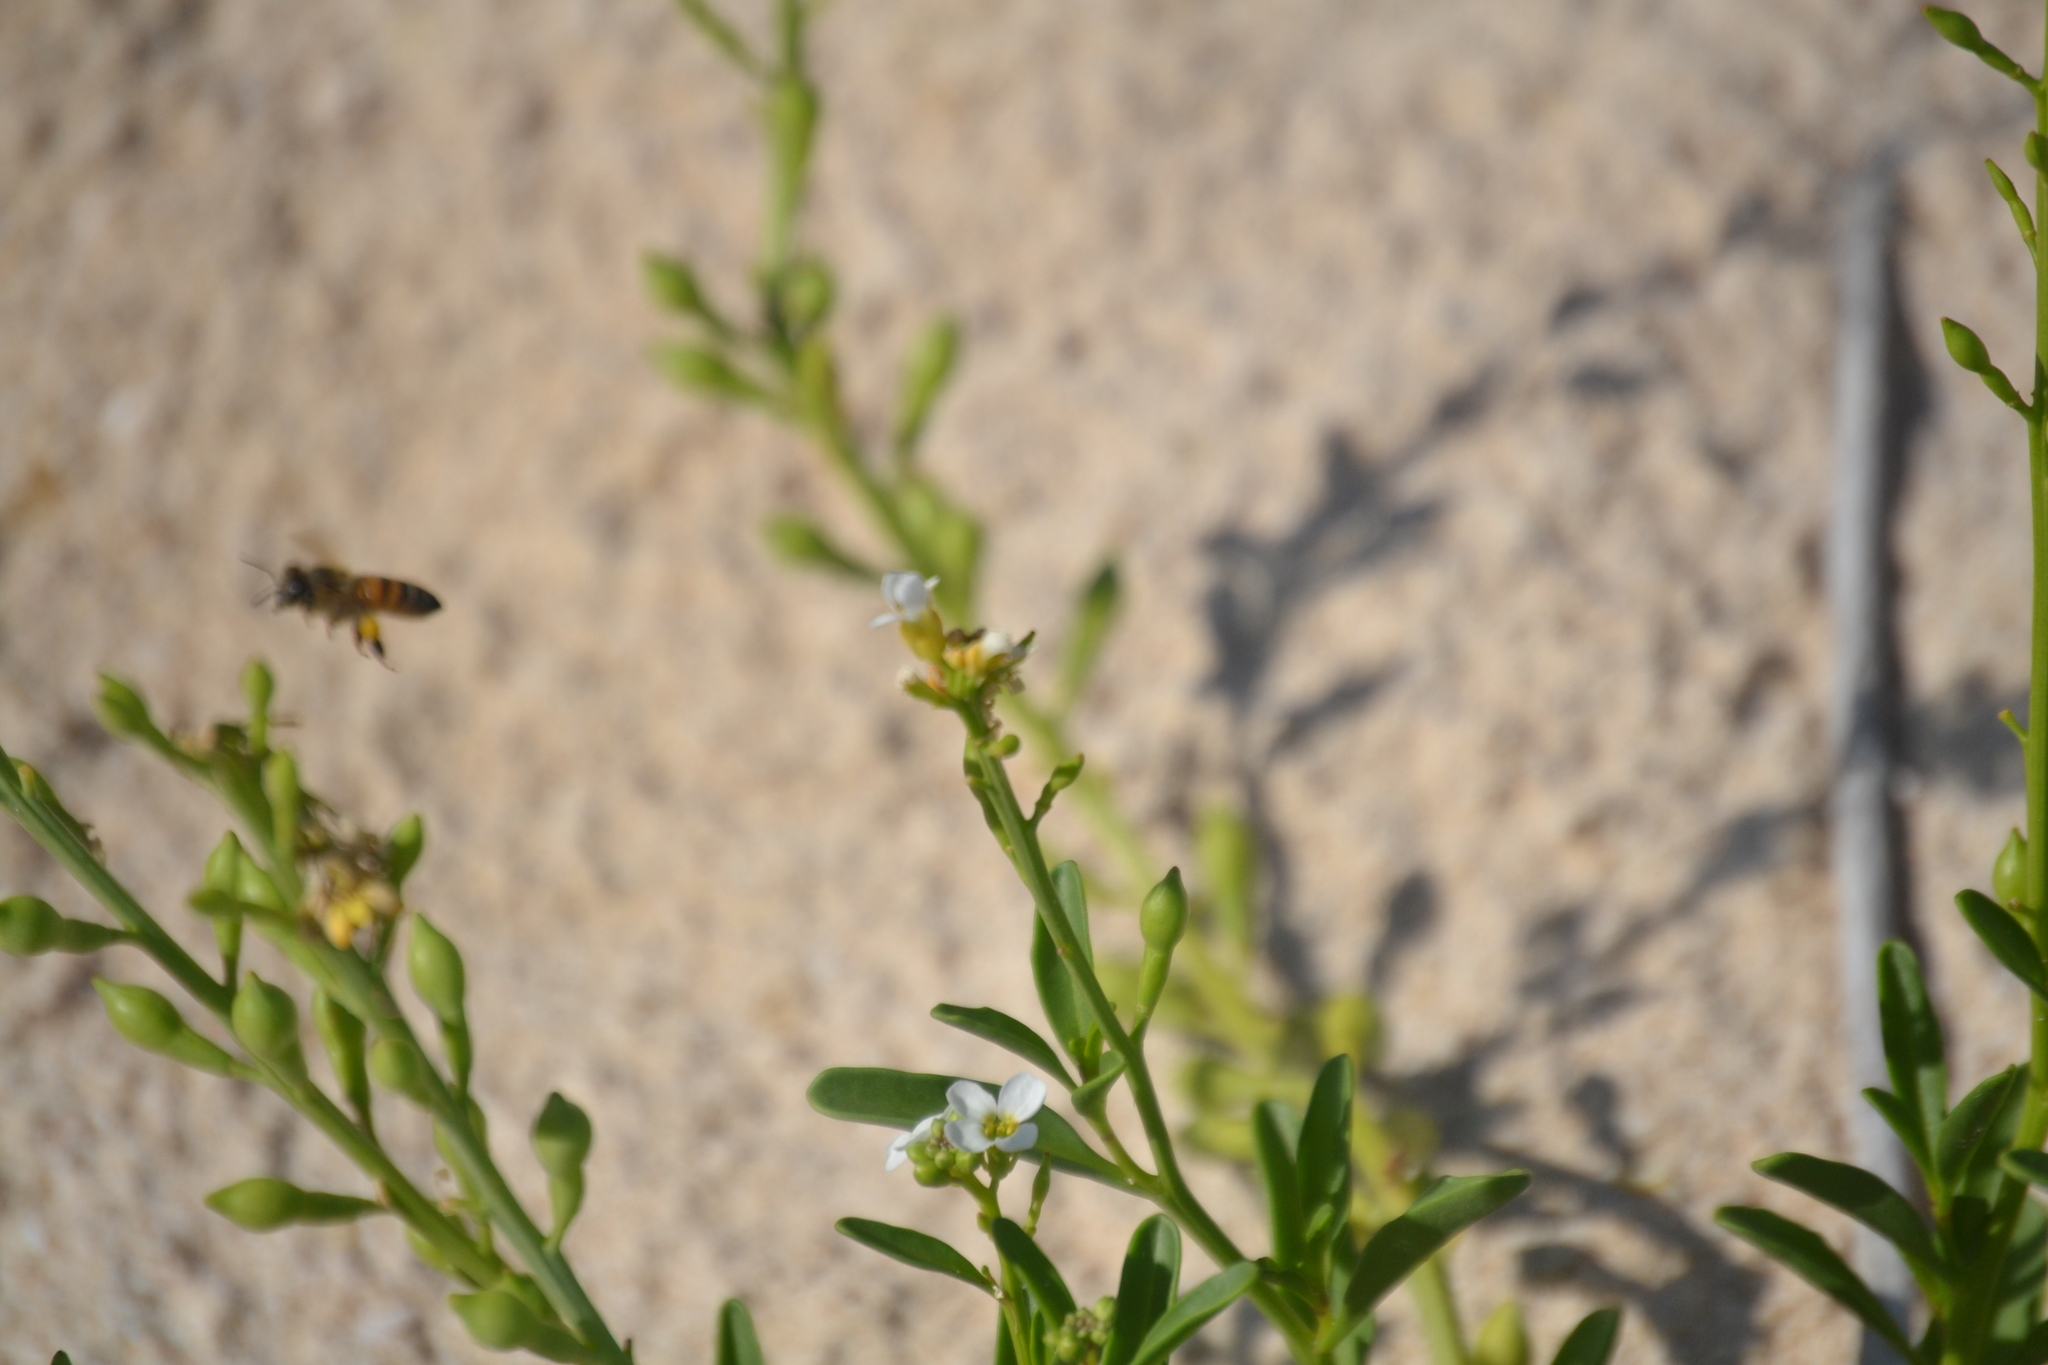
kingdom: Animalia
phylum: Arthropoda
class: Insecta
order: Hymenoptera
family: Apidae
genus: Apis
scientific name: Apis mellifera
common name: Honey bee
